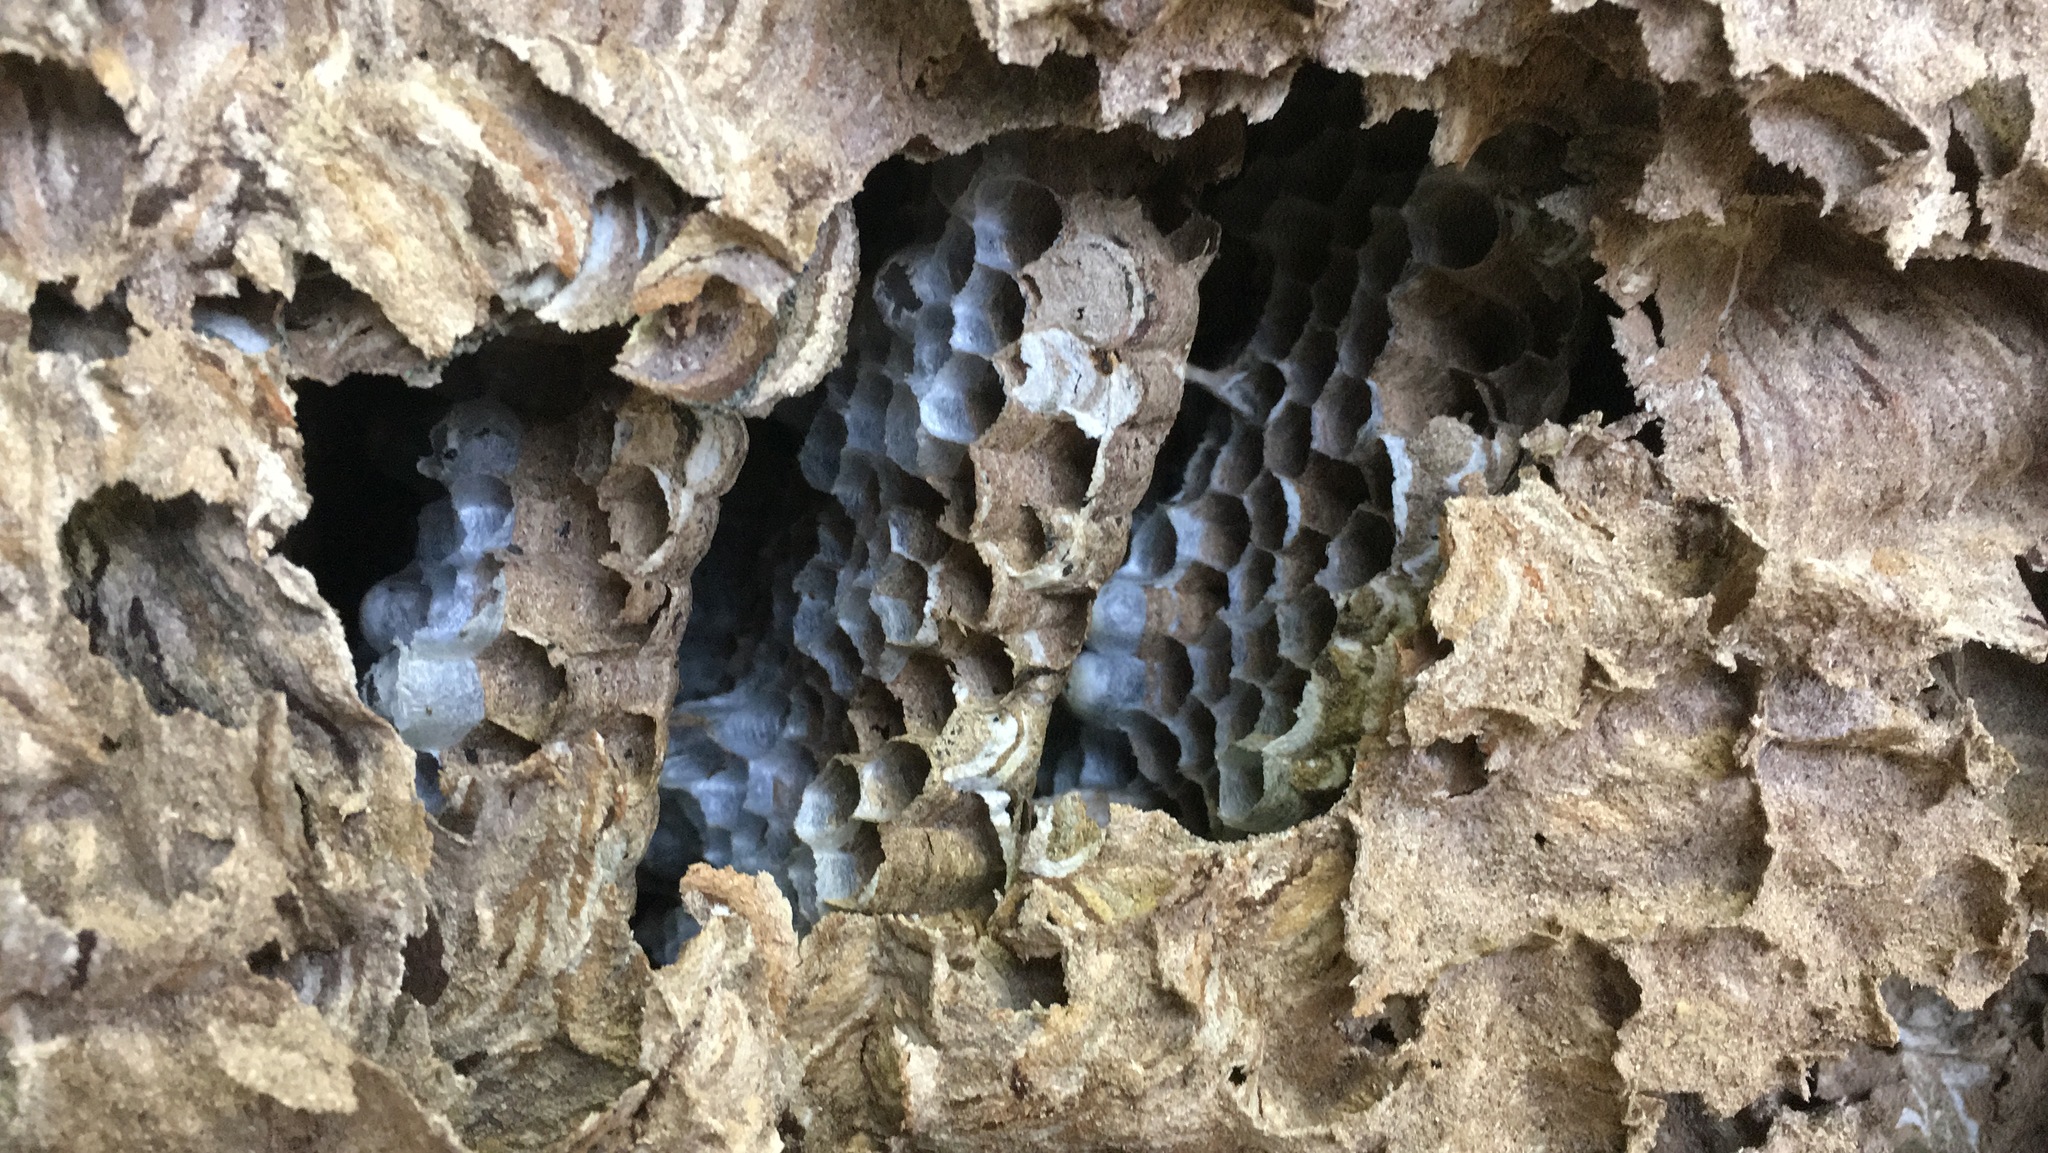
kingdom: Animalia
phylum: Arthropoda
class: Insecta
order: Hymenoptera
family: Vespidae
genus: Vespa
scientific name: Vespa velutina
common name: Asian hornet
